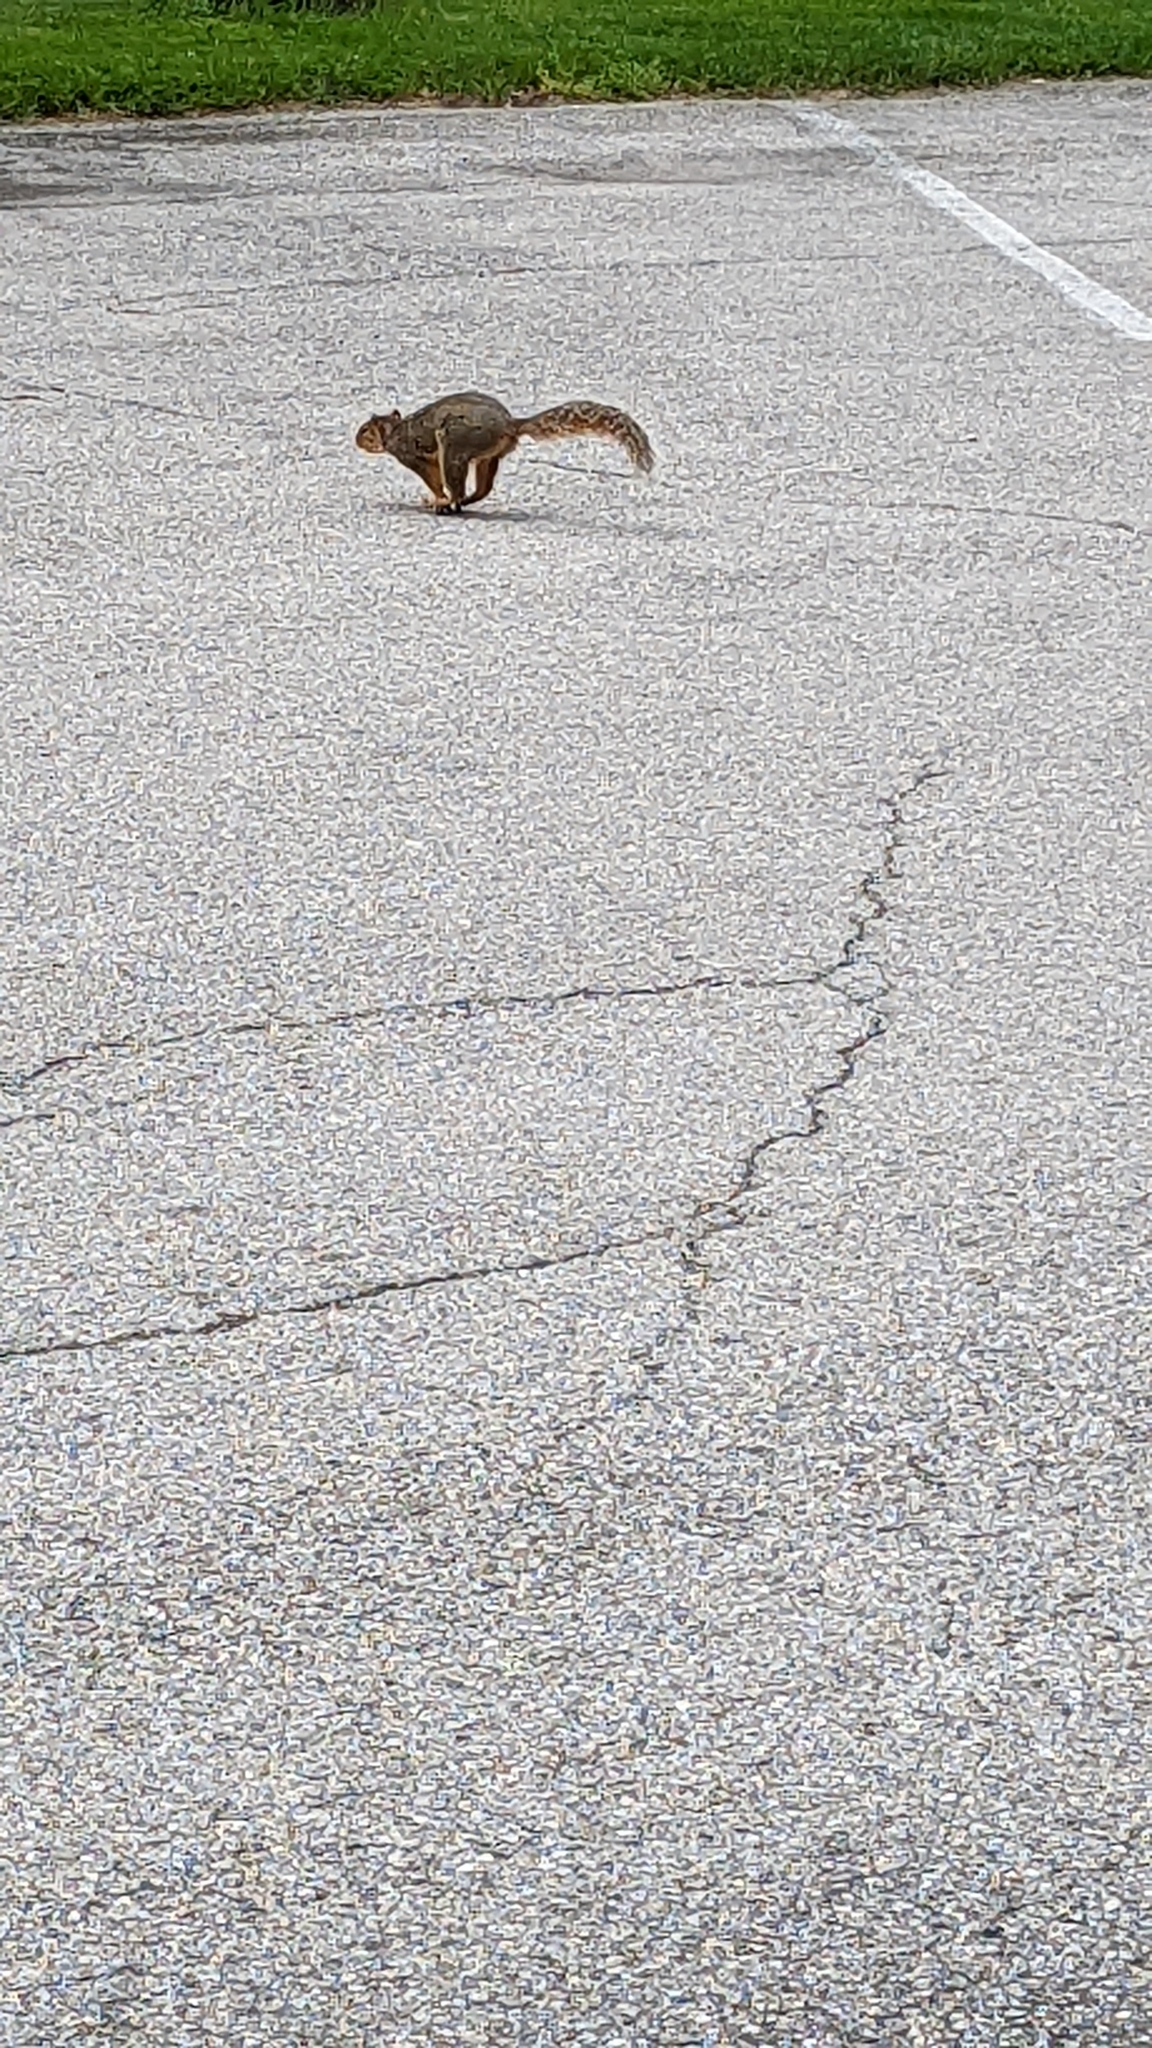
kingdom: Animalia
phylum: Chordata
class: Mammalia
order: Rodentia
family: Sciuridae
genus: Sciurus
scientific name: Sciurus niger
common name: Fox squirrel
